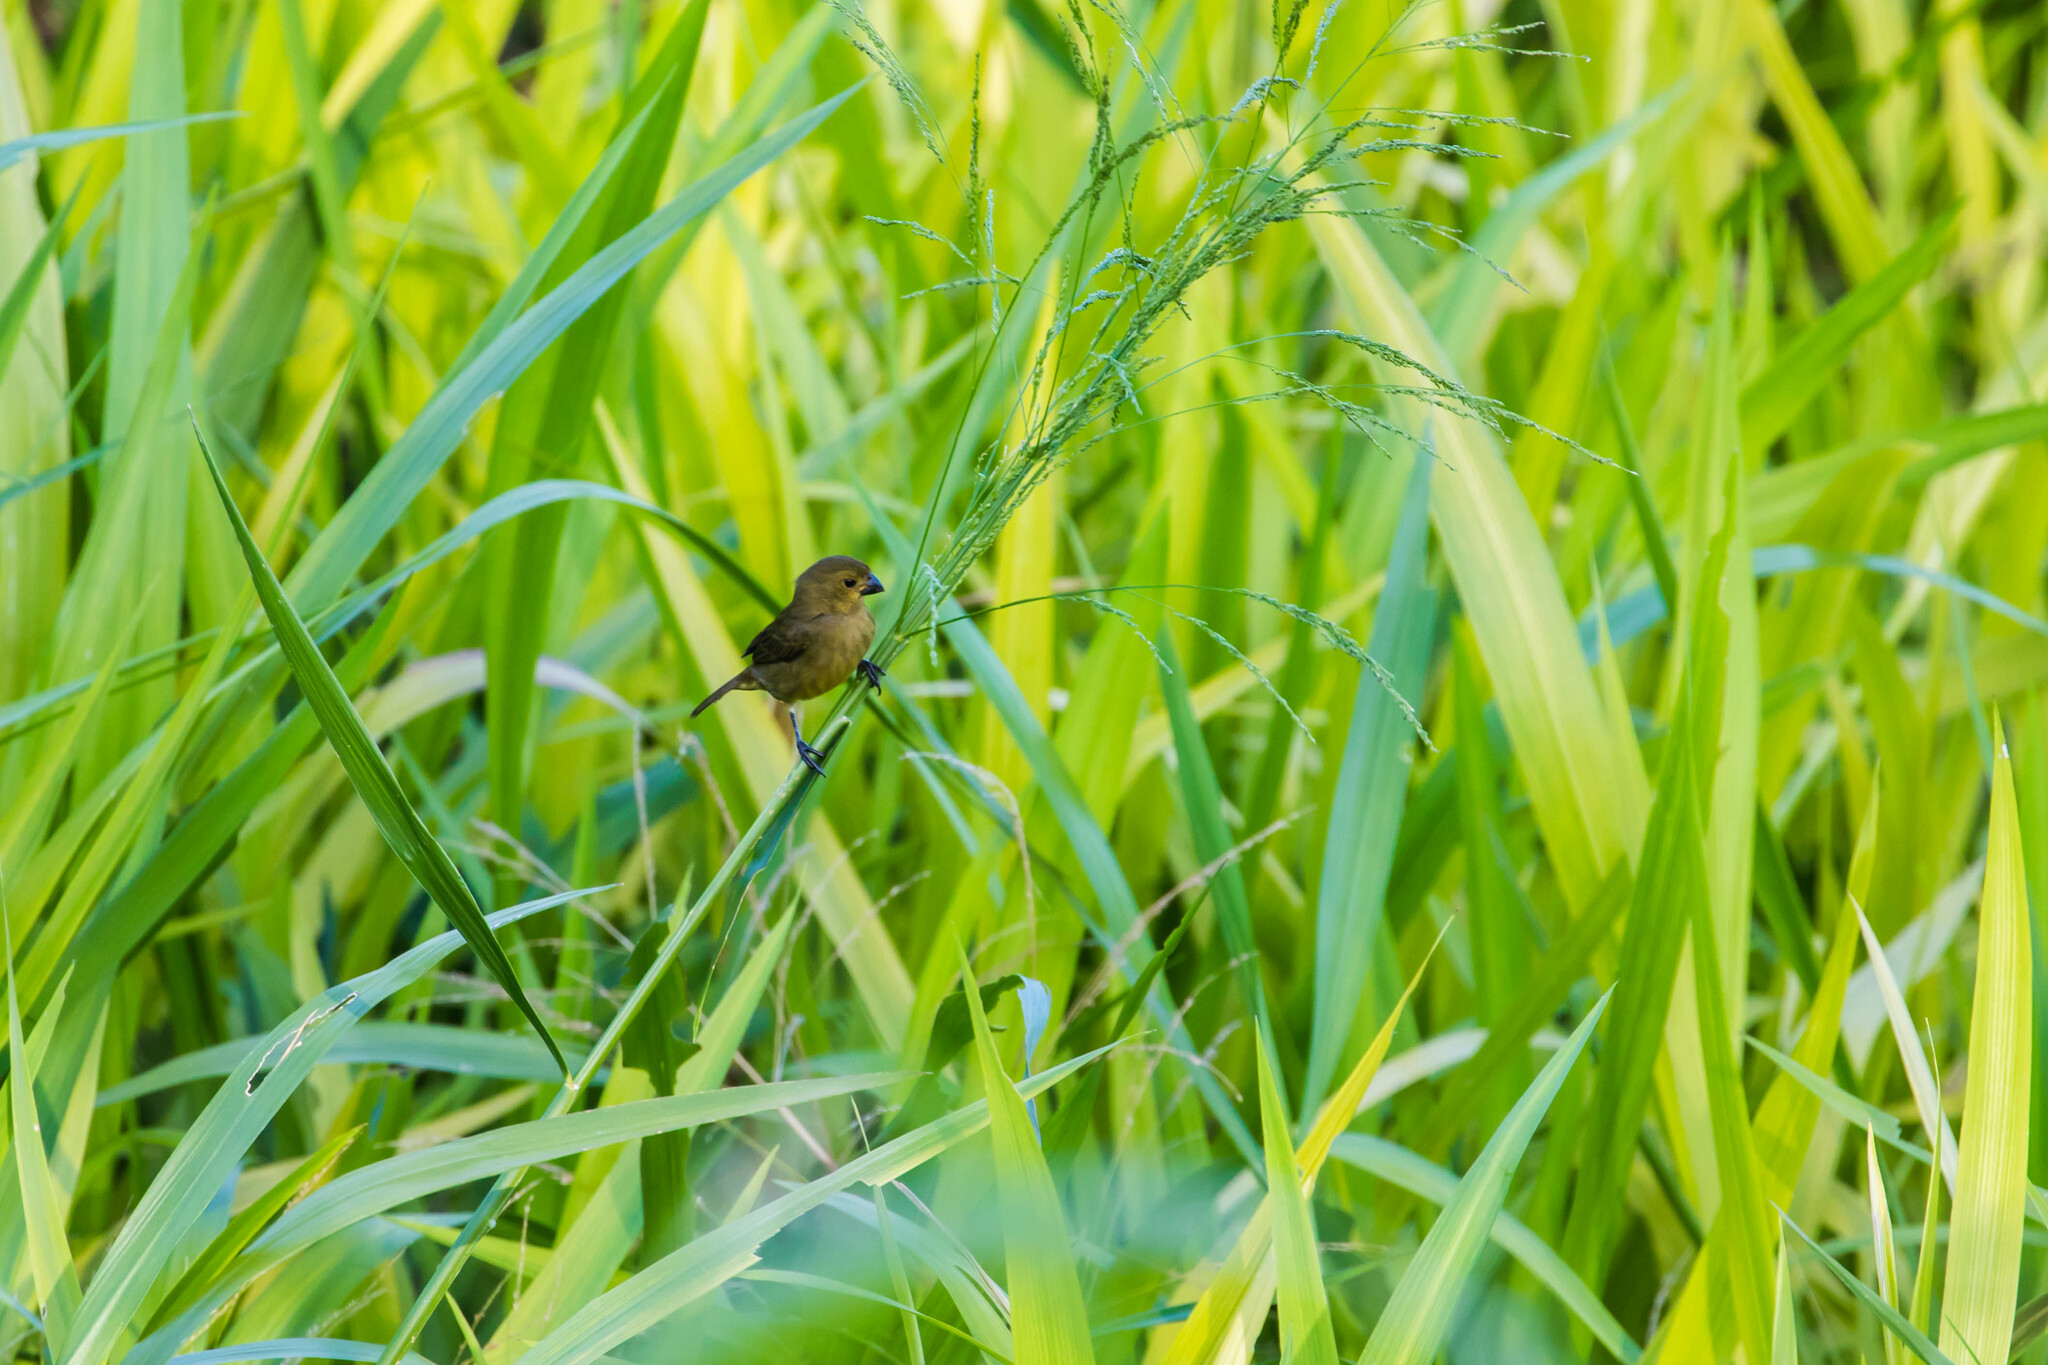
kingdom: Animalia
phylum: Chordata
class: Aves
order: Passeriformes
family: Thraupidae
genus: Sporophila
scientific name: Sporophila corvina
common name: Variable seedeater
